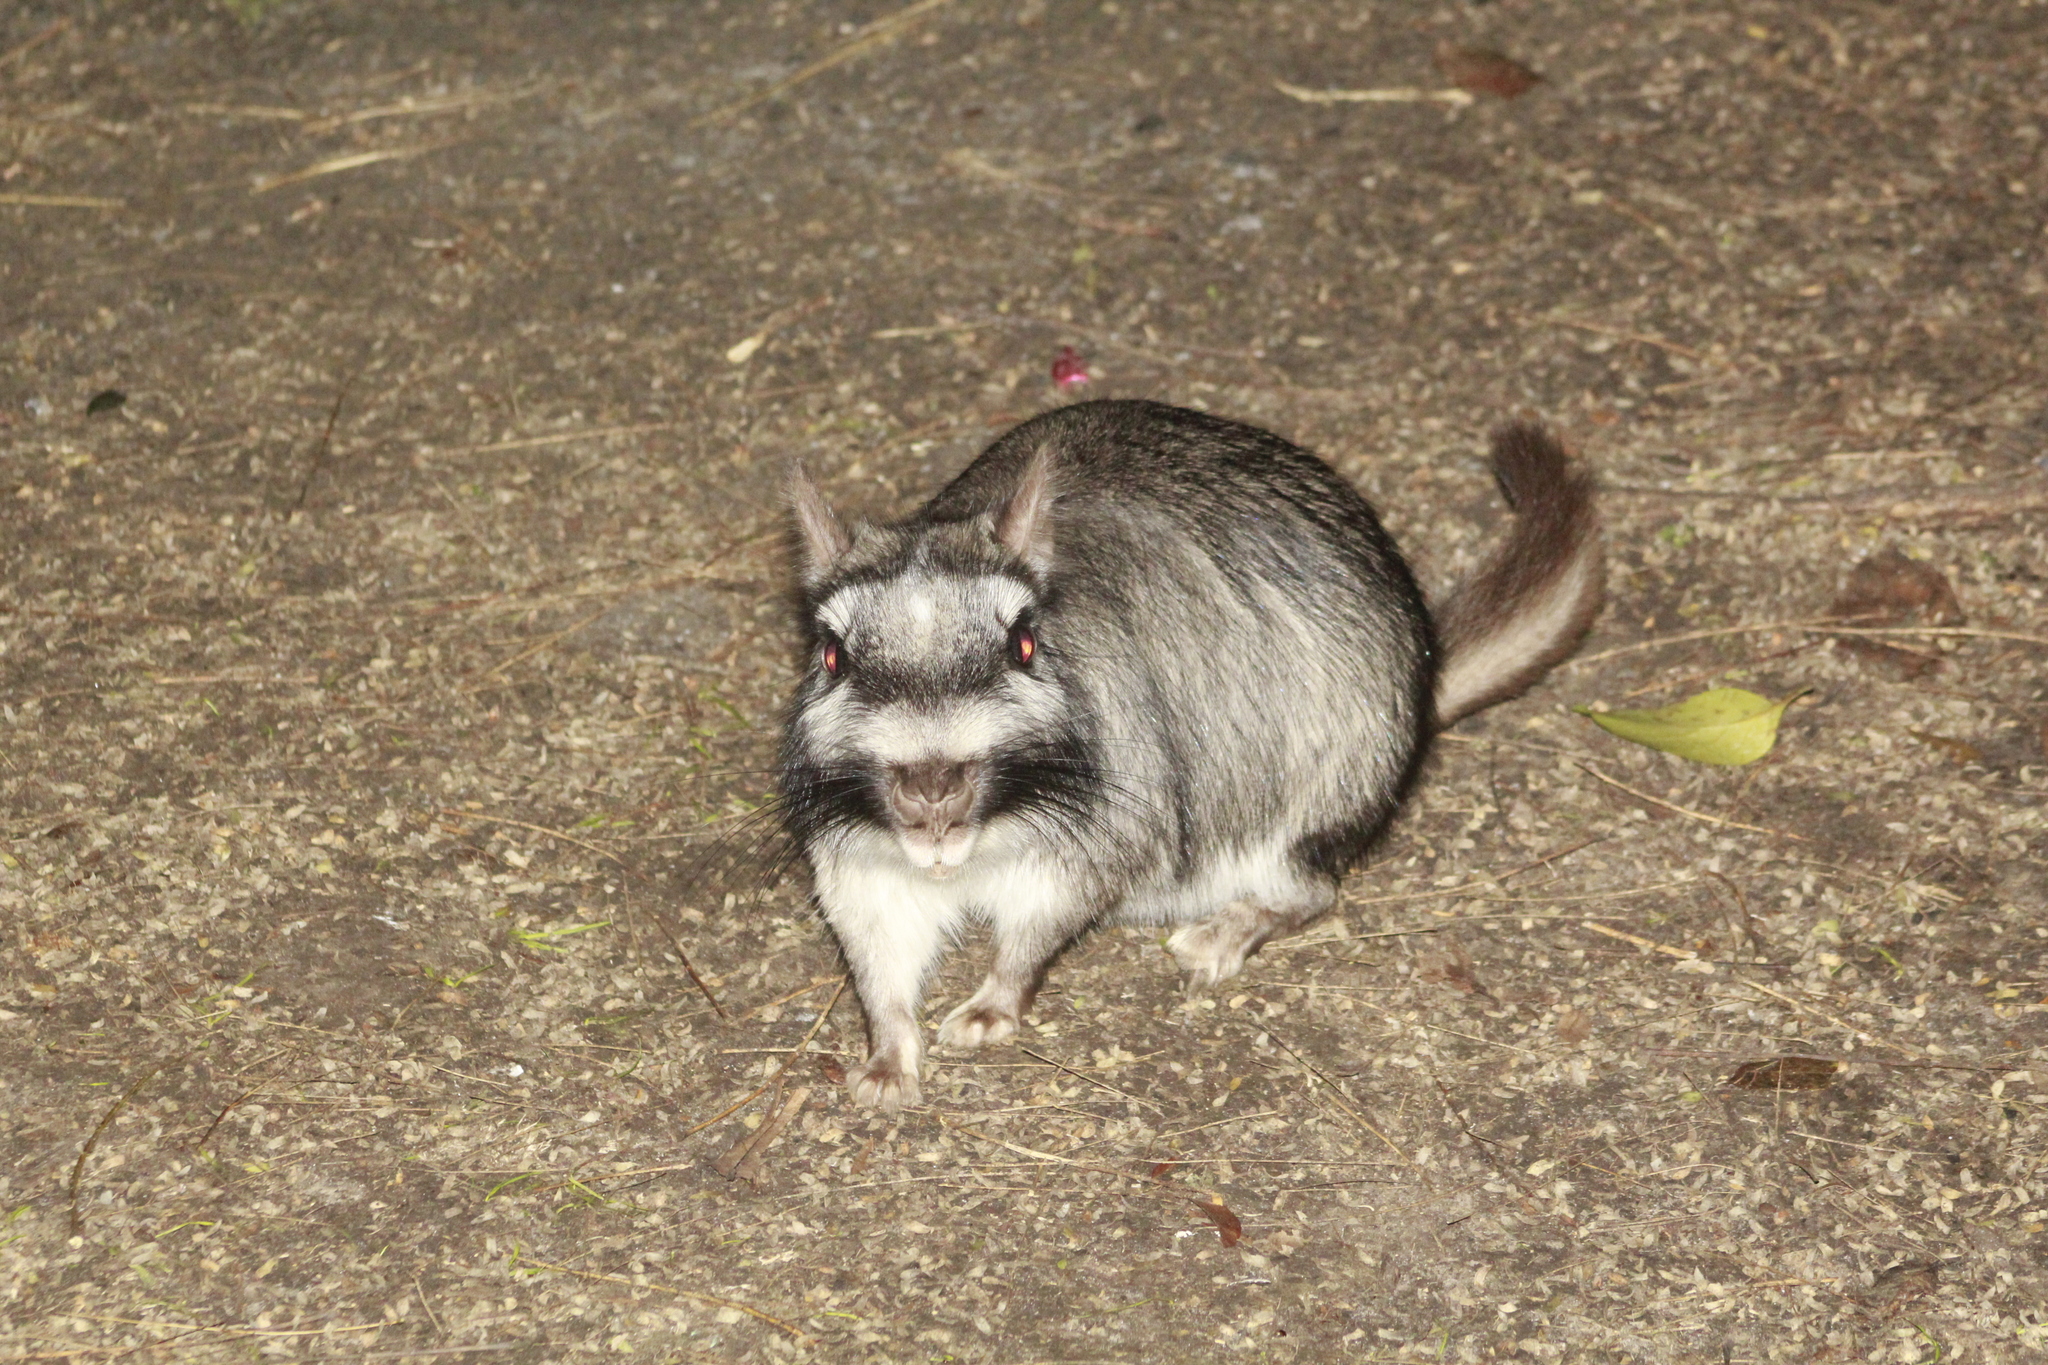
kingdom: Animalia
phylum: Chordata
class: Mammalia
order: Rodentia
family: Chinchillidae
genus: Lagostomus
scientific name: Lagostomus maximus
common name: Plains viscacha
